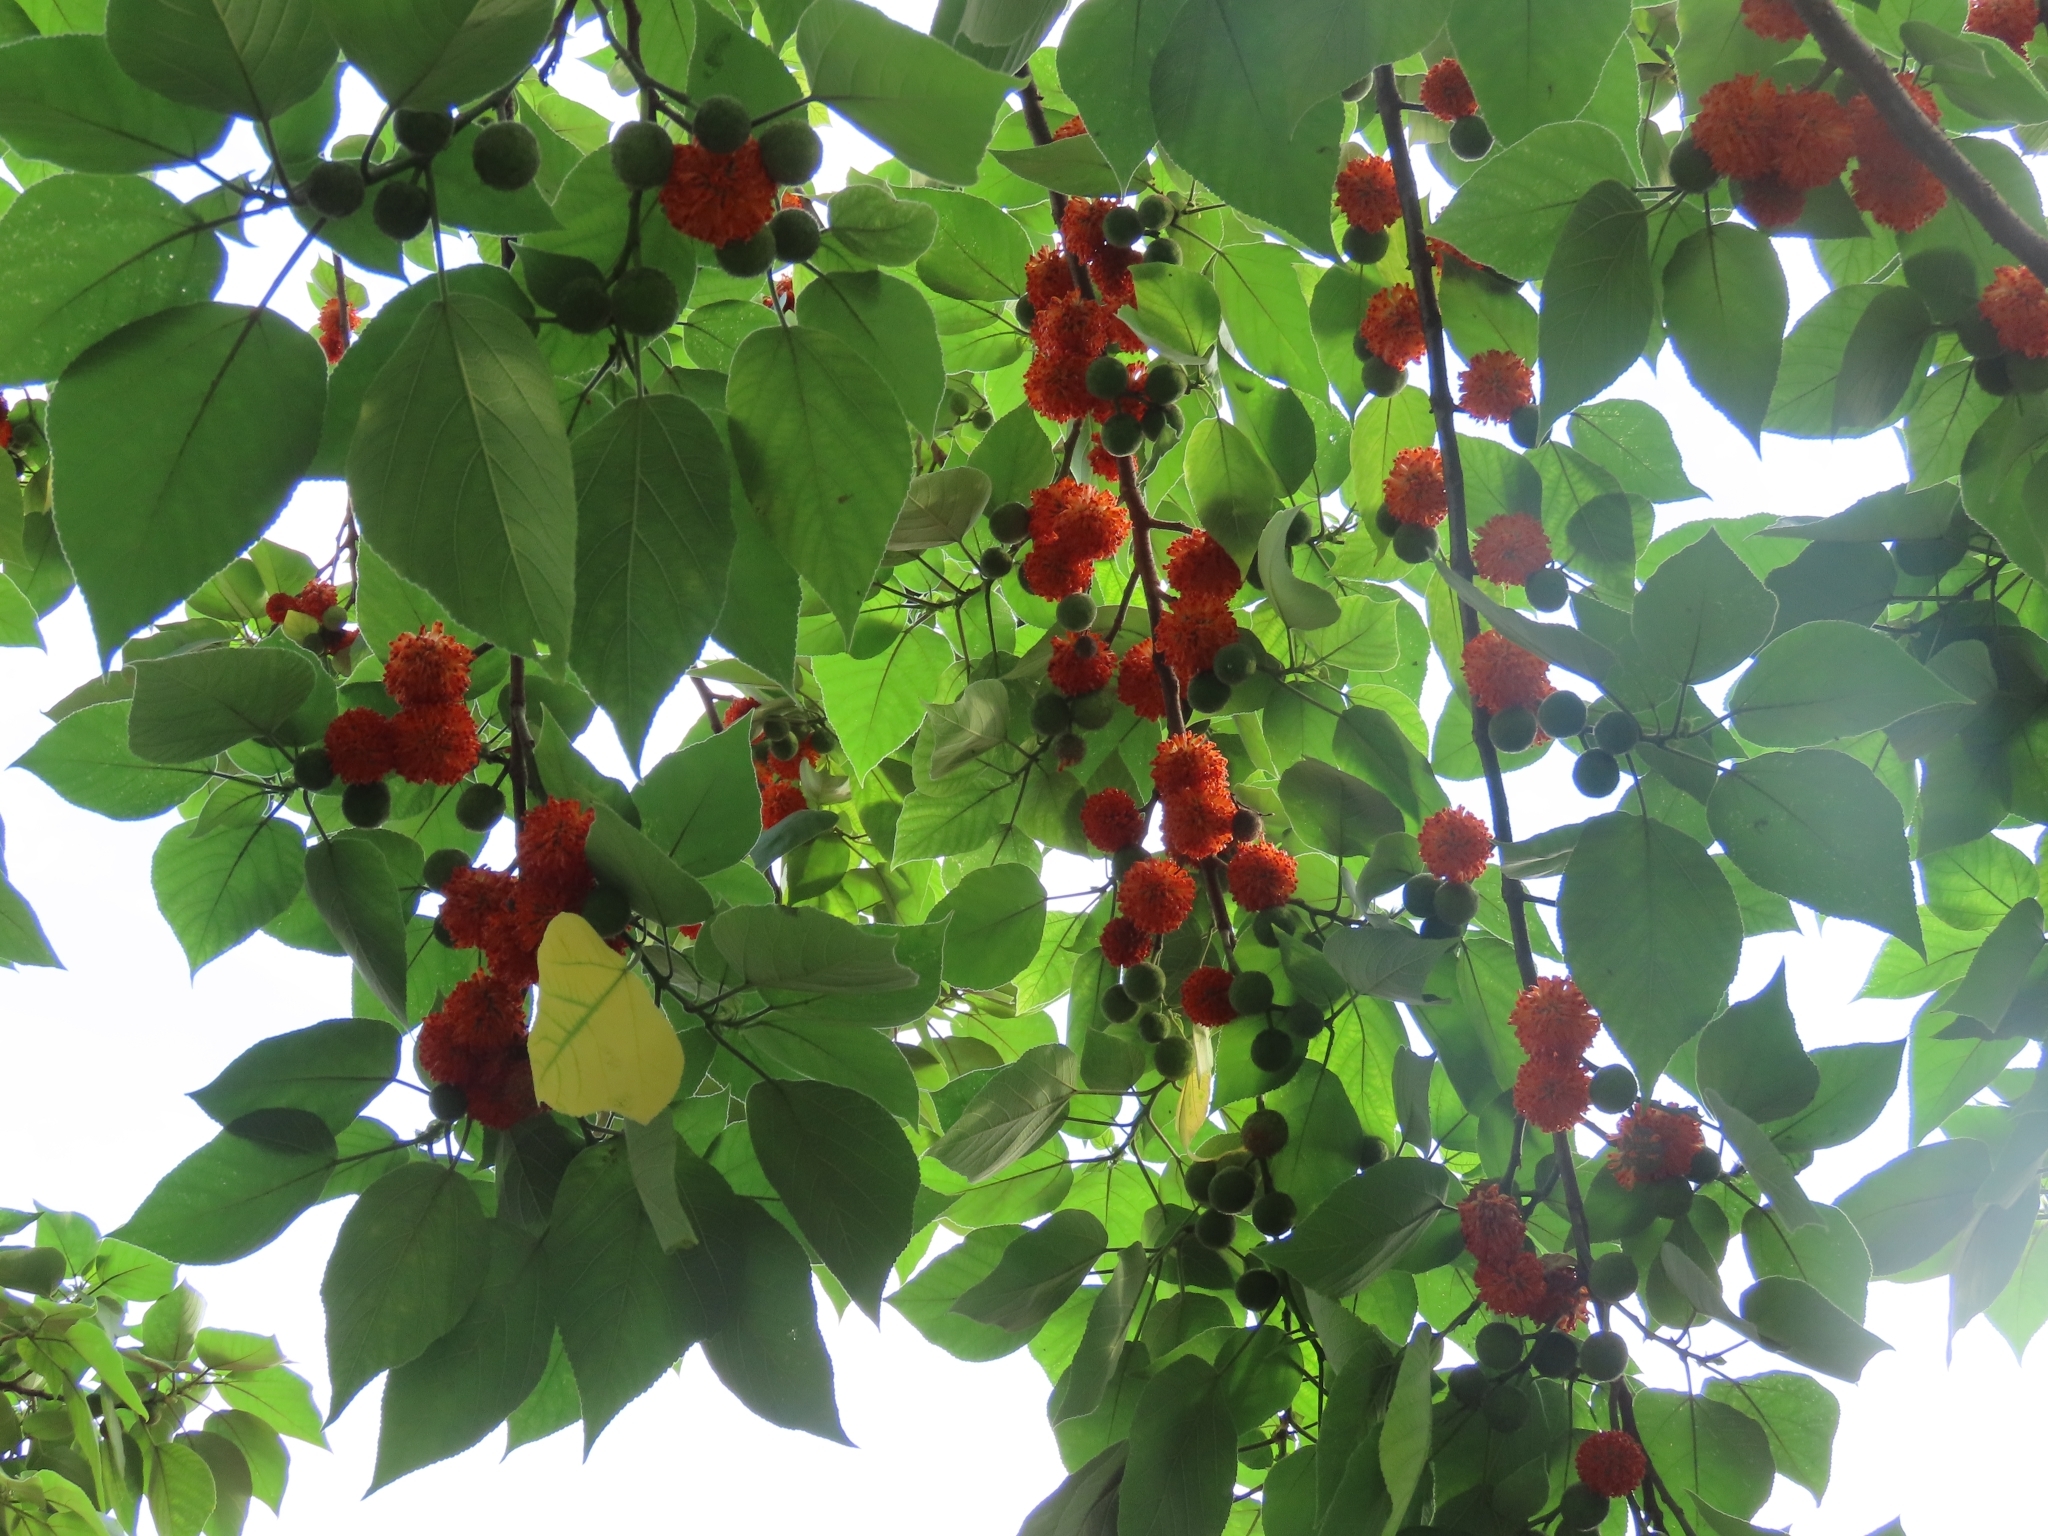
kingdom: Plantae
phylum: Tracheophyta
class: Magnoliopsida
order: Rosales
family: Moraceae
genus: Broussonetia
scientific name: Broussonetia papyrifera
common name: Paper mulberry
